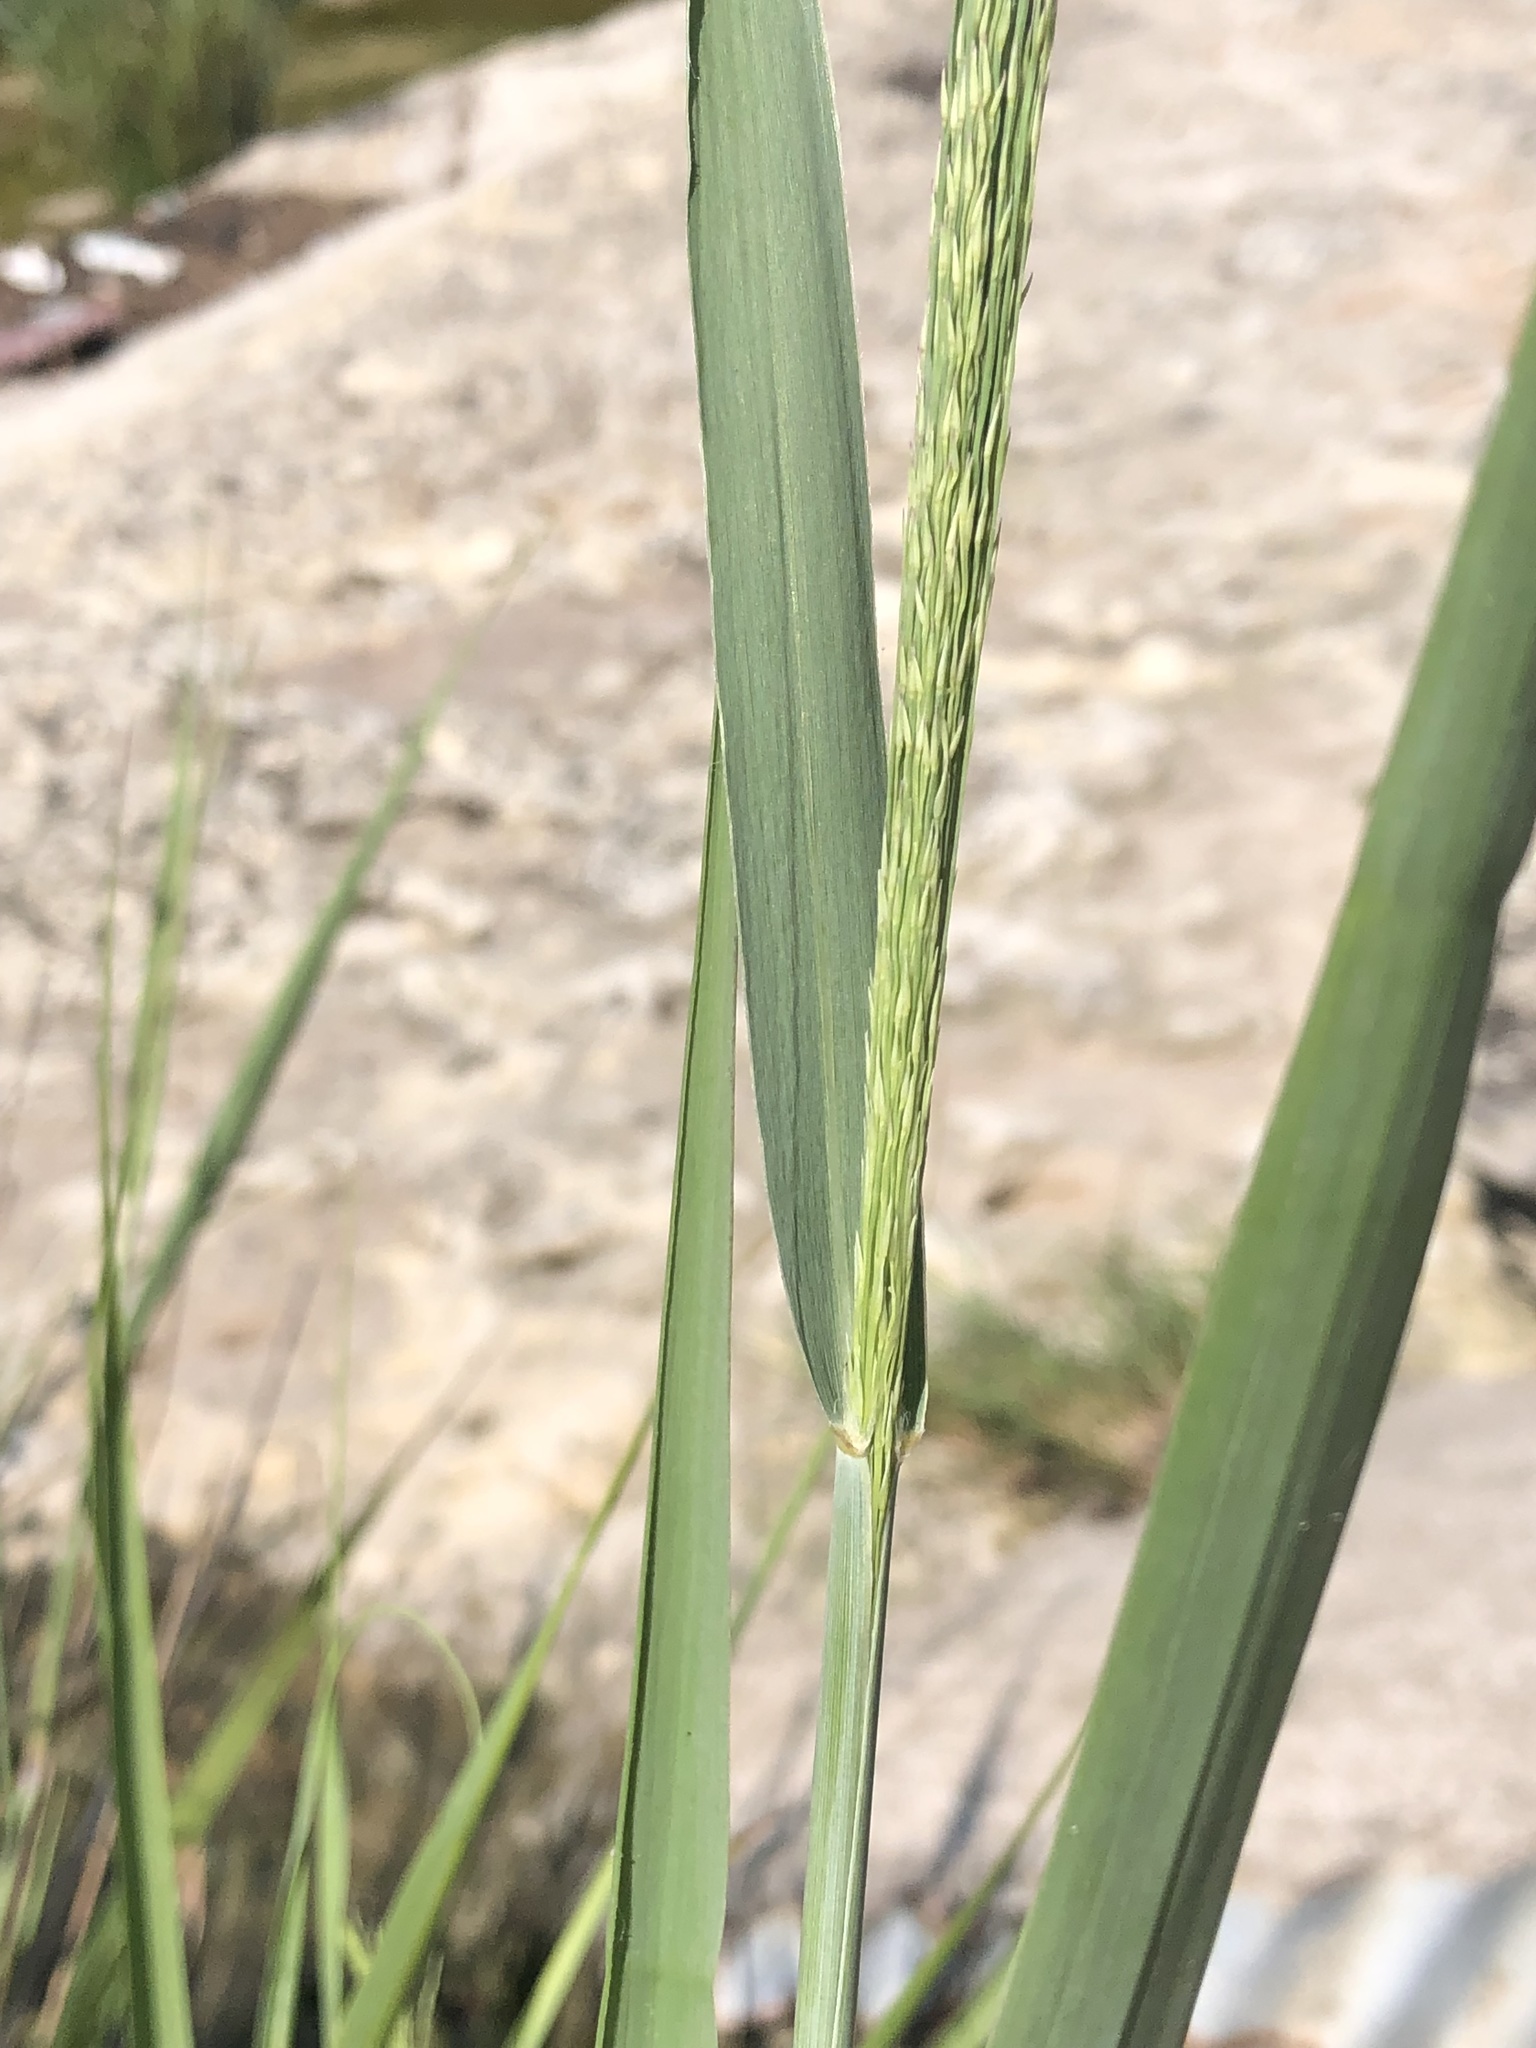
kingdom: Plantae
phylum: Tracheophyta
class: Liliopsida
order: Poales
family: Poaceae
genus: Panicum
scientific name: Panicum virgatum
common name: Switchgrass
